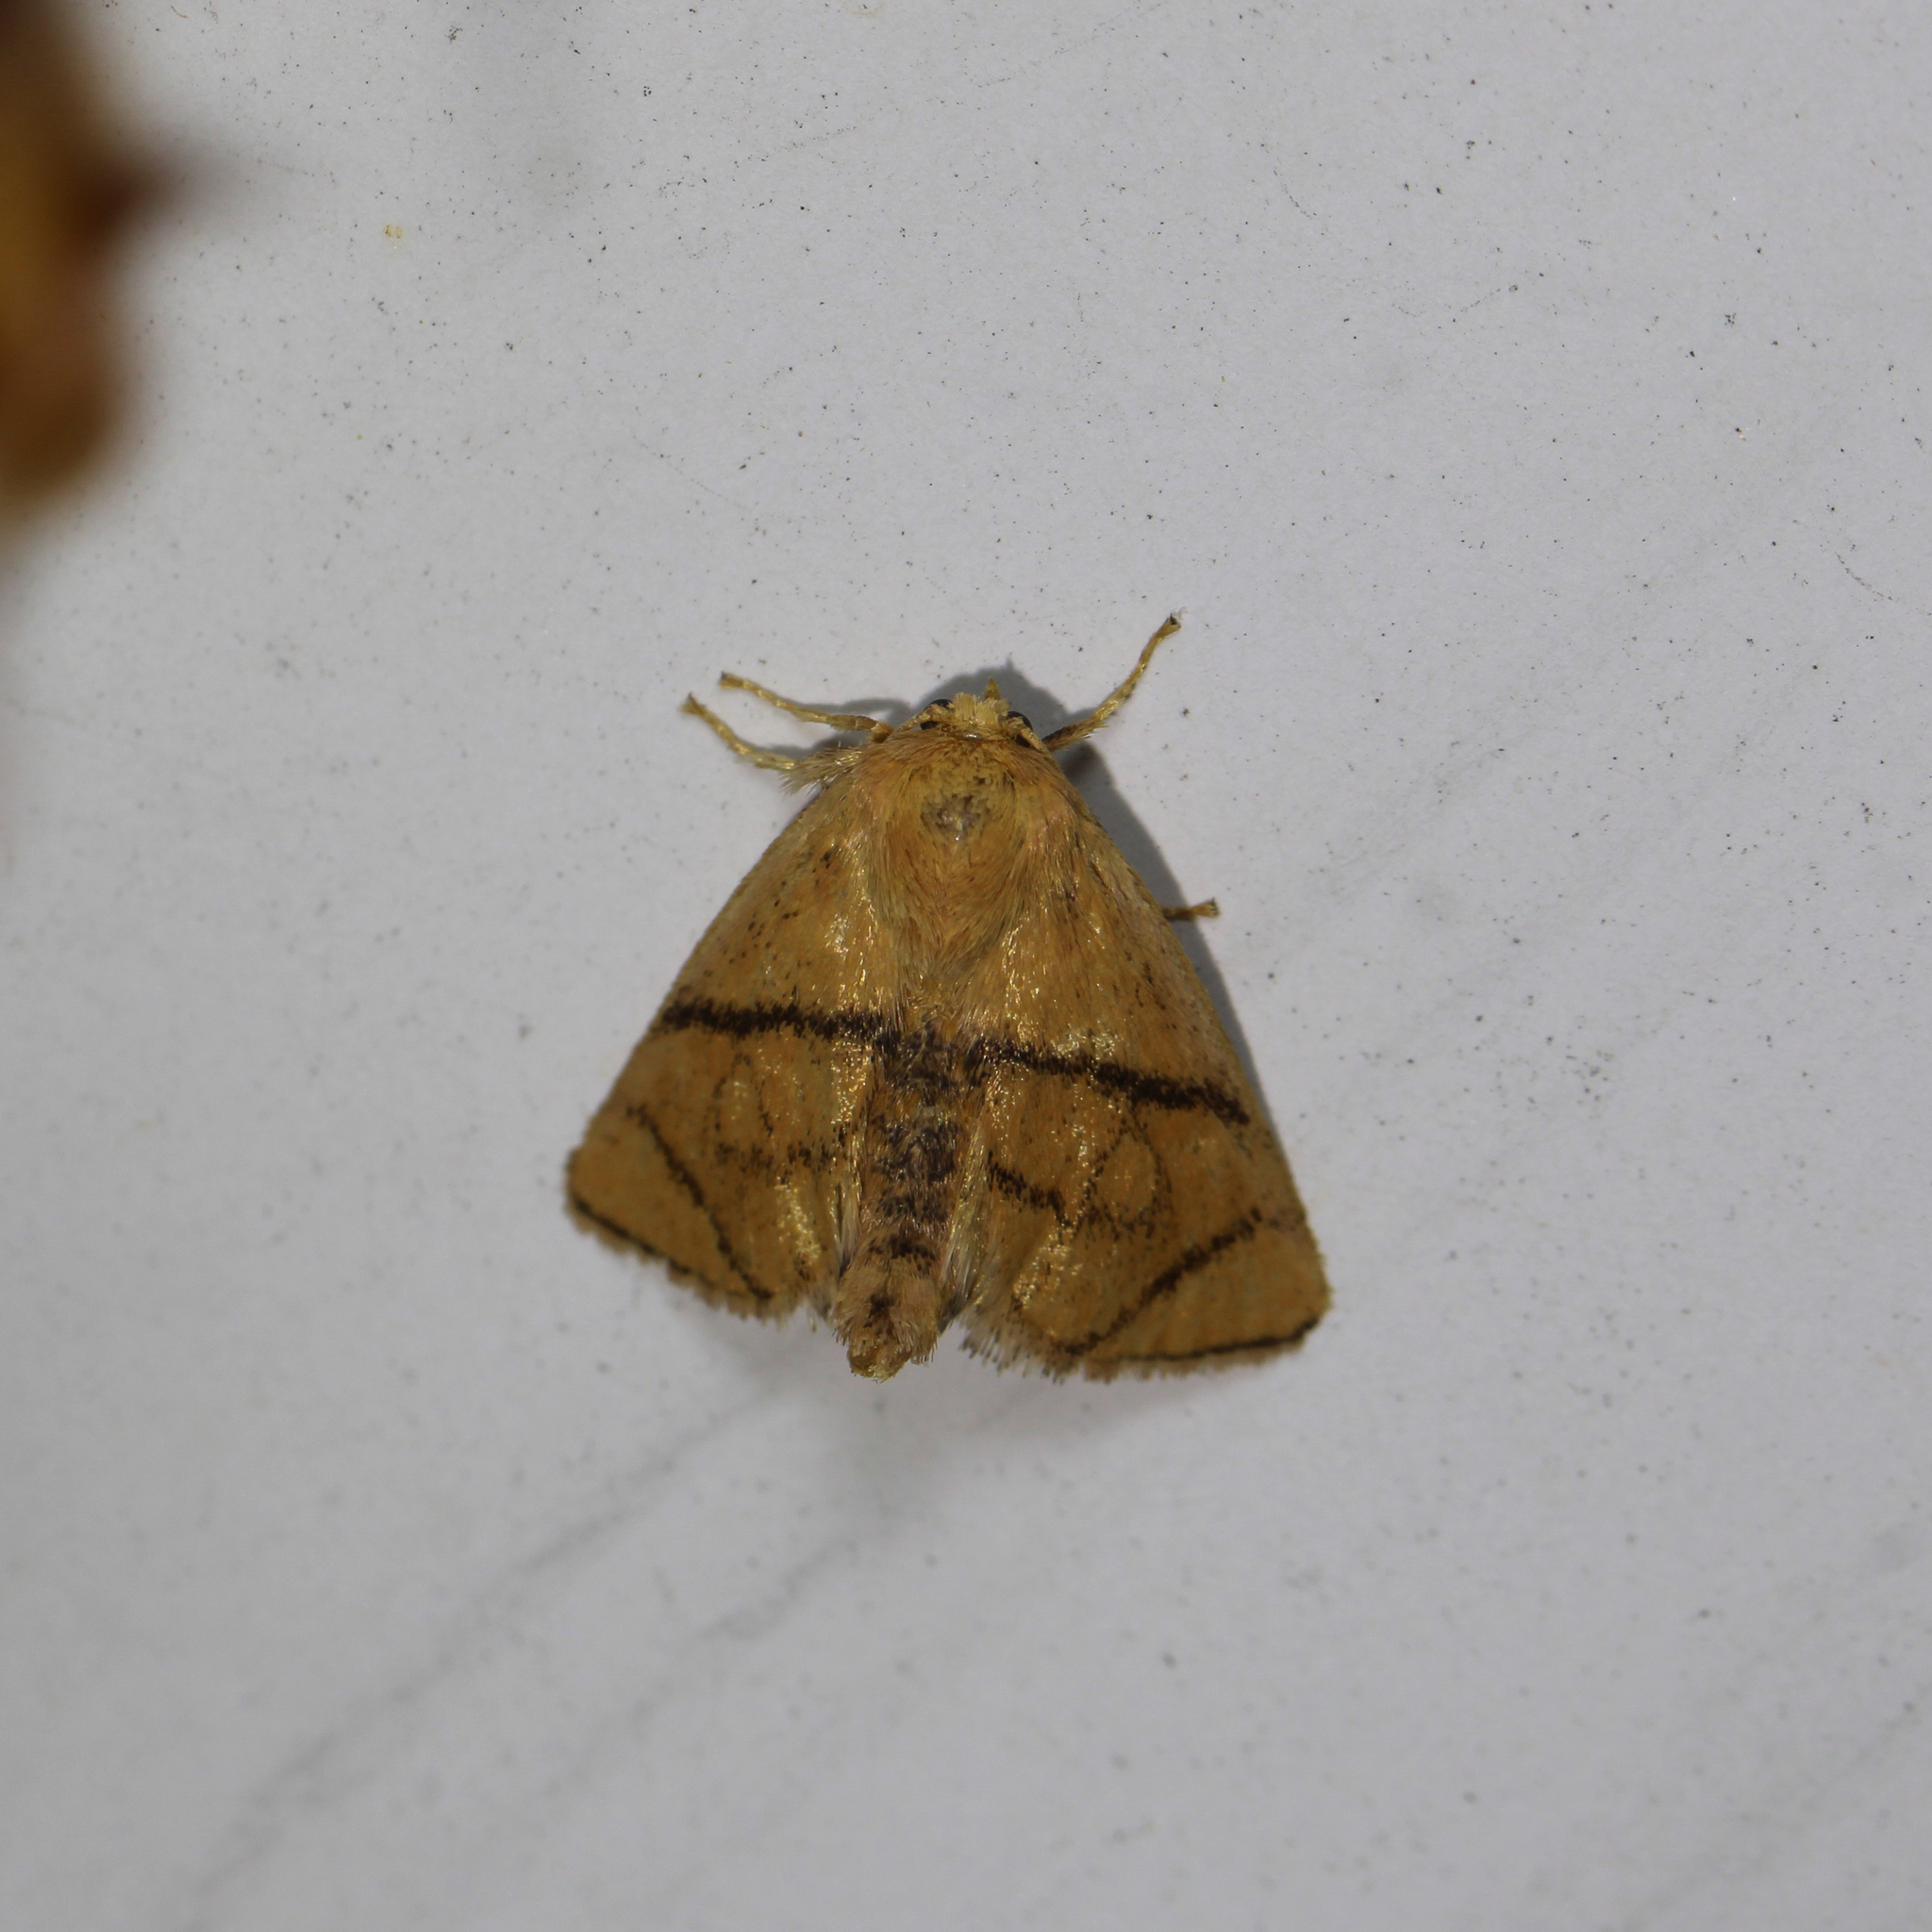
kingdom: Animalia
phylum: Arthropoda
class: Insecta
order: Lepidoptera
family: Limacodidae
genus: Apoda
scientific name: Apoda y-inversa
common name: Yellow-collared slug moth
